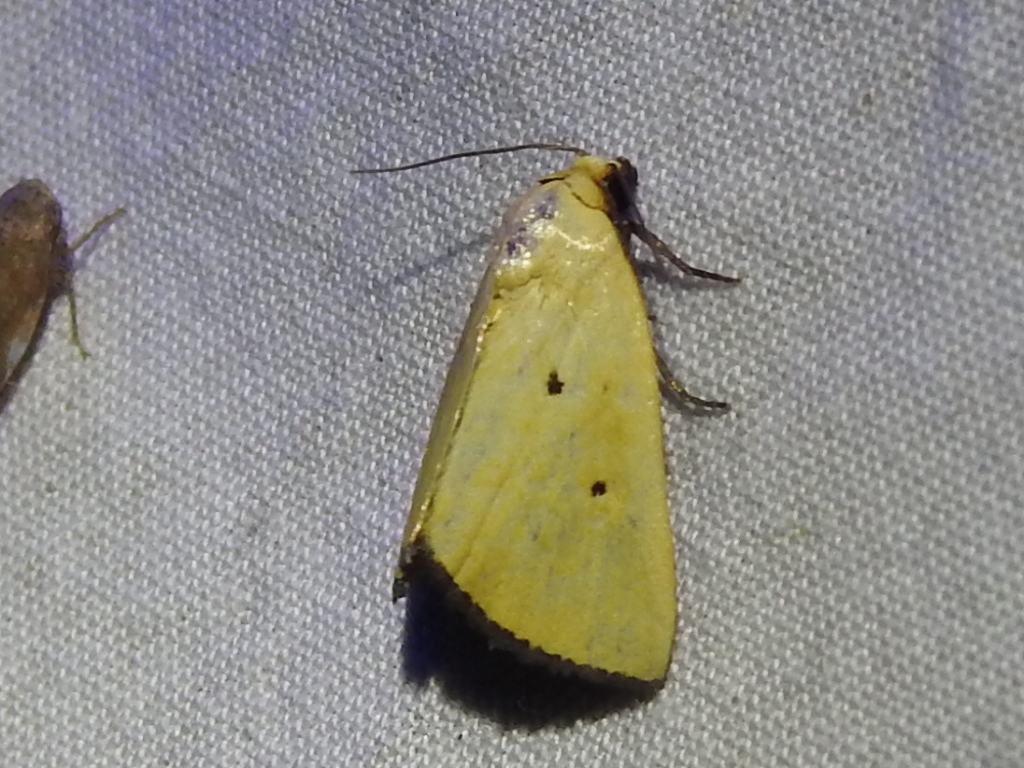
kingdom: Animalia
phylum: Arthropoda
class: Insecta
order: Lepidoptera
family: Noctuidae
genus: Marimatha
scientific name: Marimatha nigrofimbria
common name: Black-bordered lemon moth
